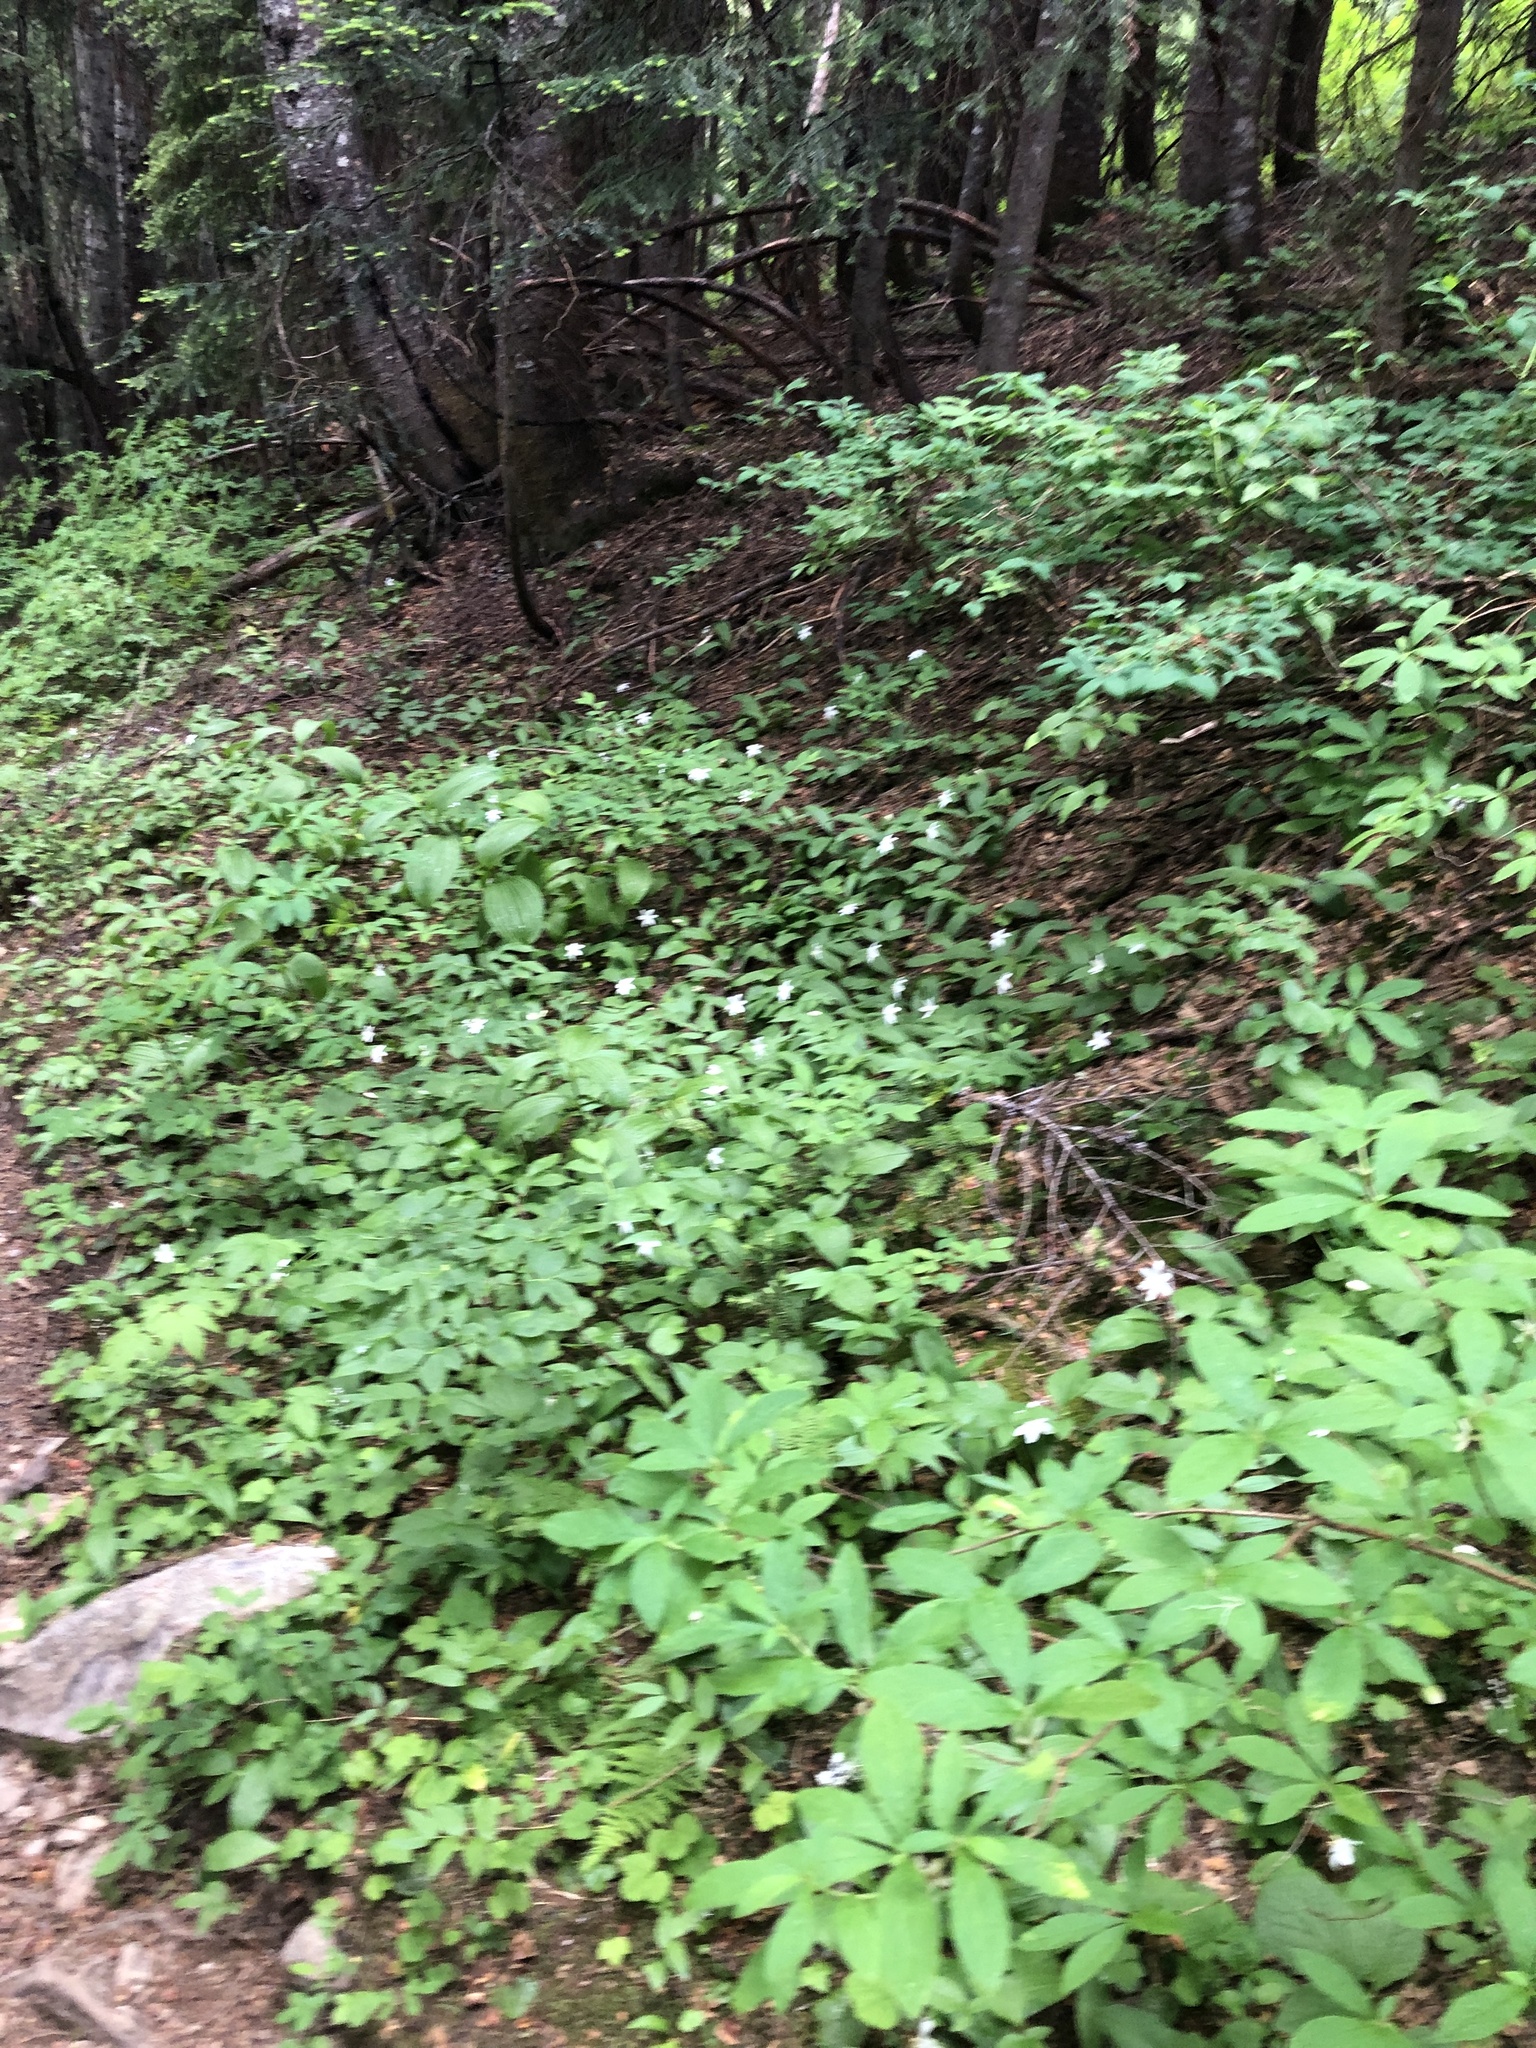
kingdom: Plantae
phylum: Tracheophyta
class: Liliopsida
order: Liliales
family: Liliaceae
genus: Clintonia
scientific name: Clintonia uniflora
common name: Queen's cup
